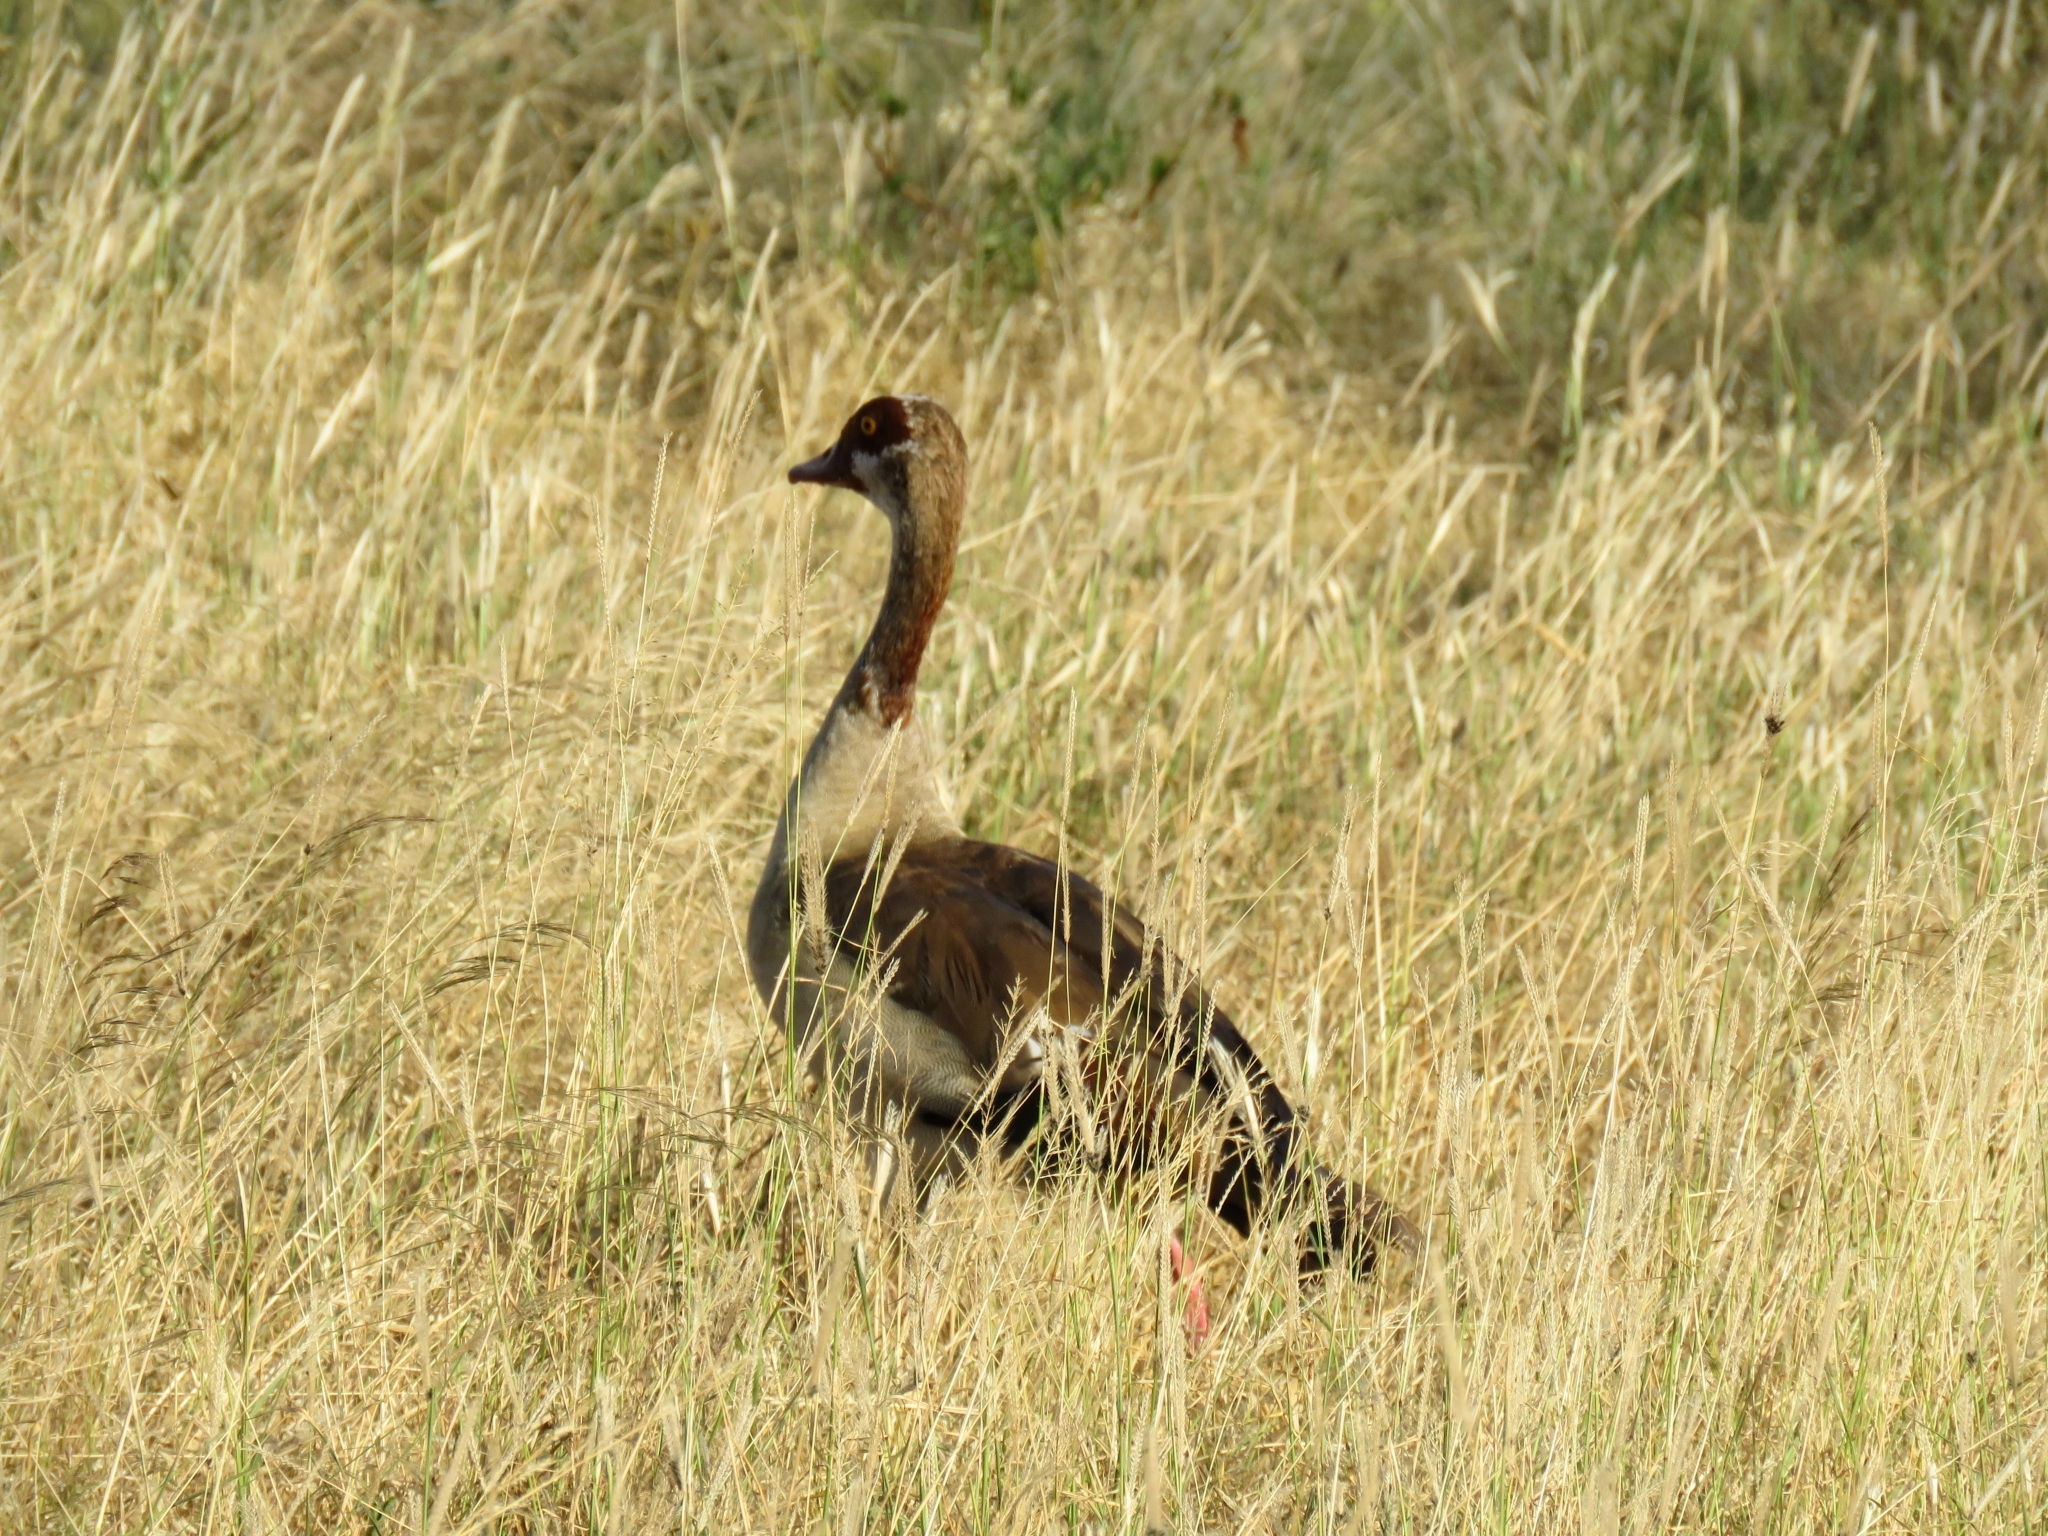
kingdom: Animalia
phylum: Chordata
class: Aves
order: Anseriformes
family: Anatidae
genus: Alopochen
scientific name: Alopochen aegyptiaca
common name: Egyptian goose
